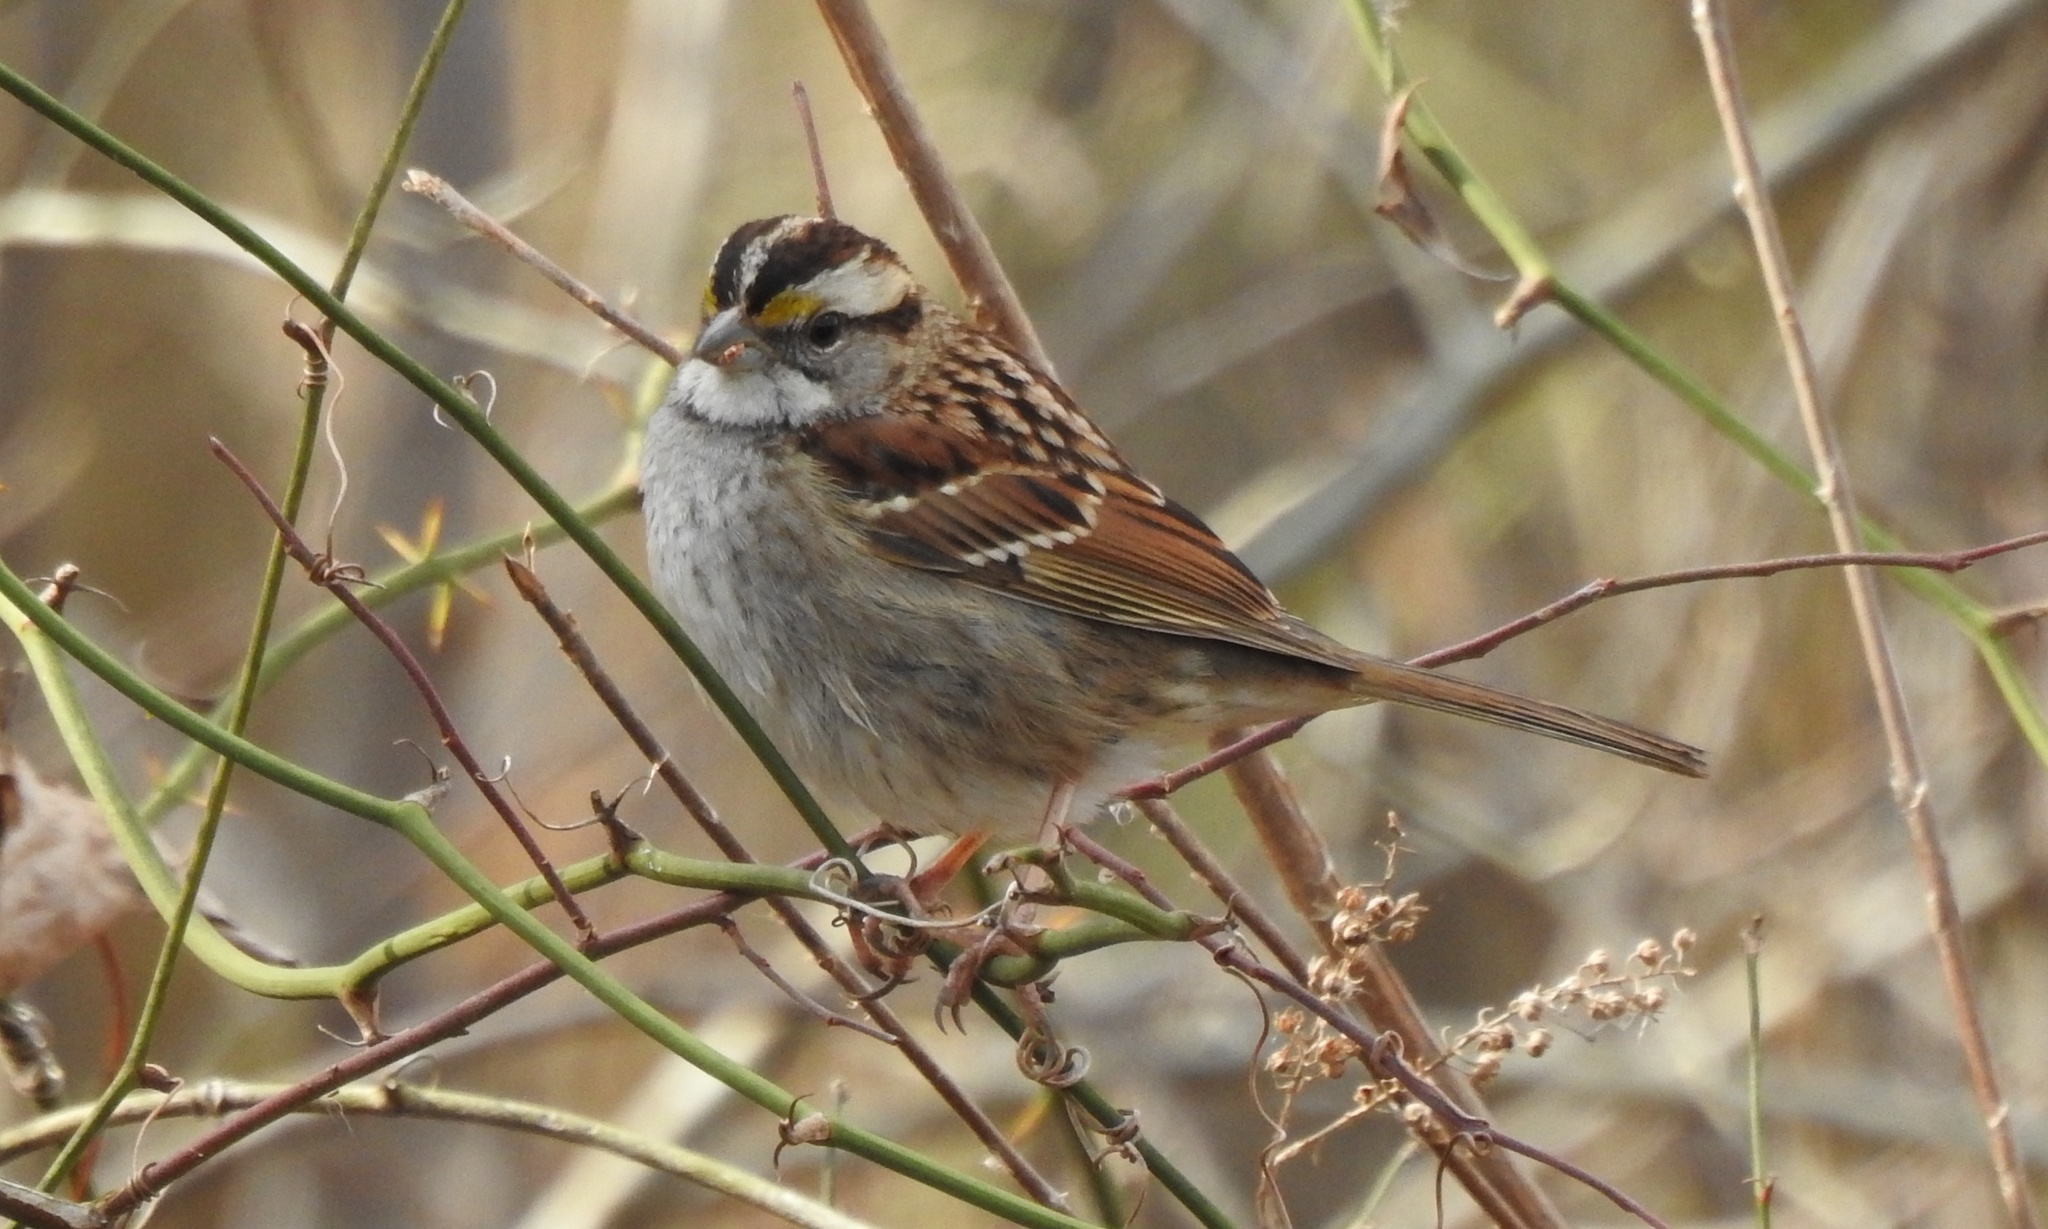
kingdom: Animalia
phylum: Chordata
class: Aves
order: Passeriformes
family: Passerellidae
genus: Zonotrichia
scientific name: Zonotrichia albicollis
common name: White-throated sparrow
